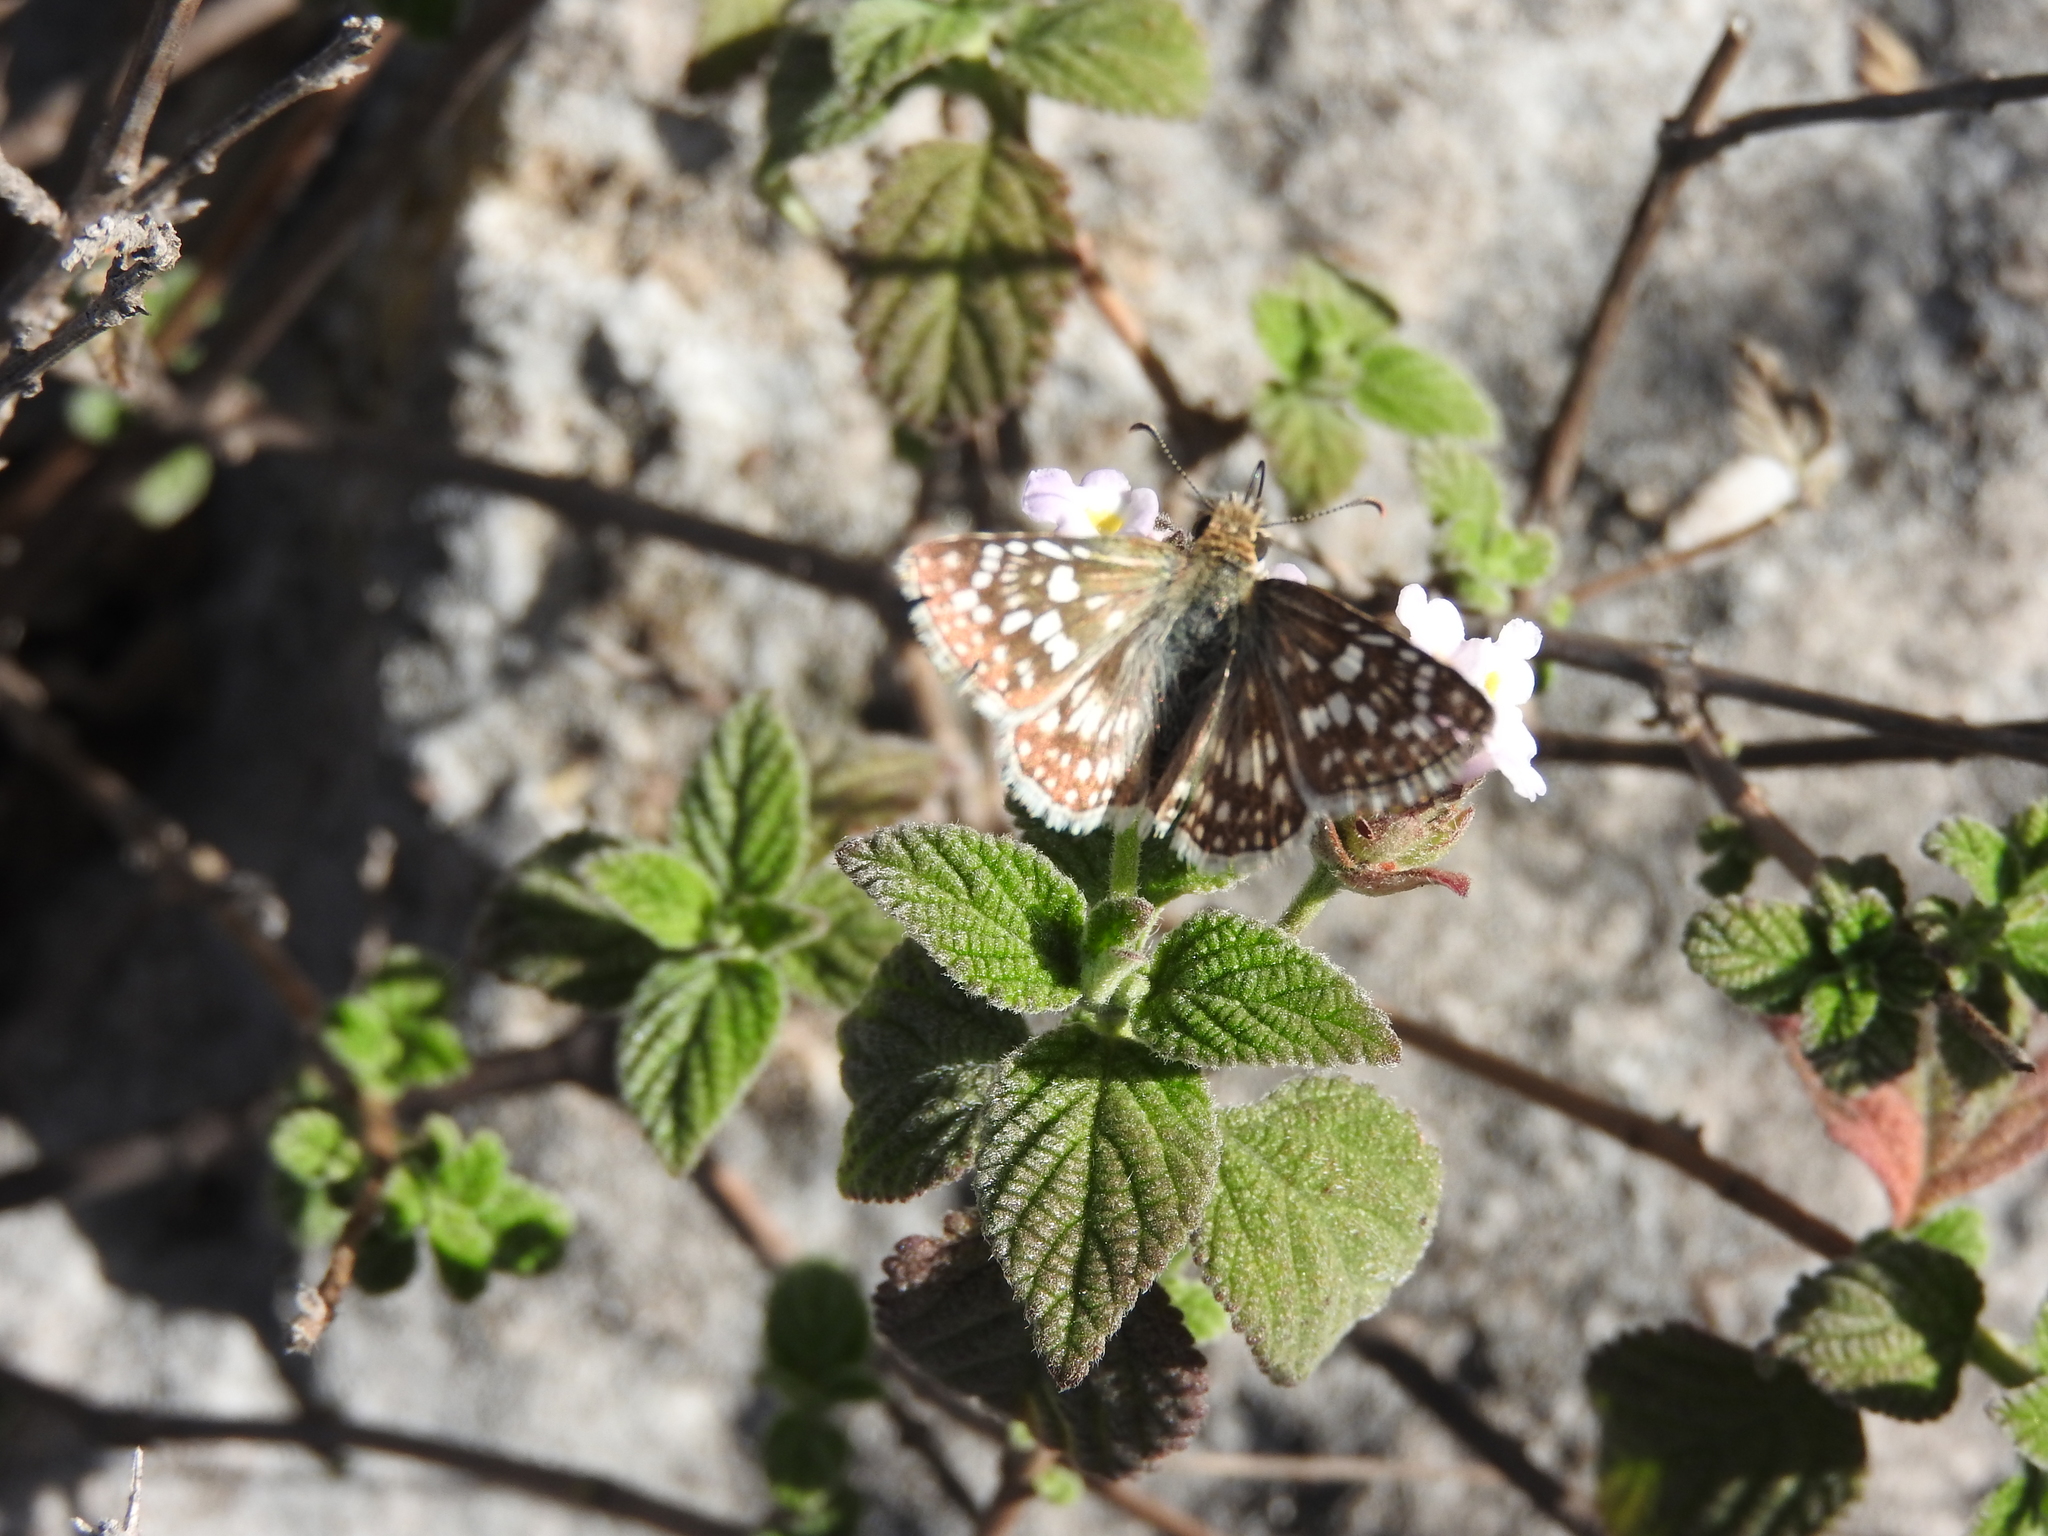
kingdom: Animalia
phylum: Arthropoda
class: Insecta
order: Lepidoptera
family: Hesperiidae
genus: Burnsius
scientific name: Burnsius communis
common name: Common checkered-skipper
